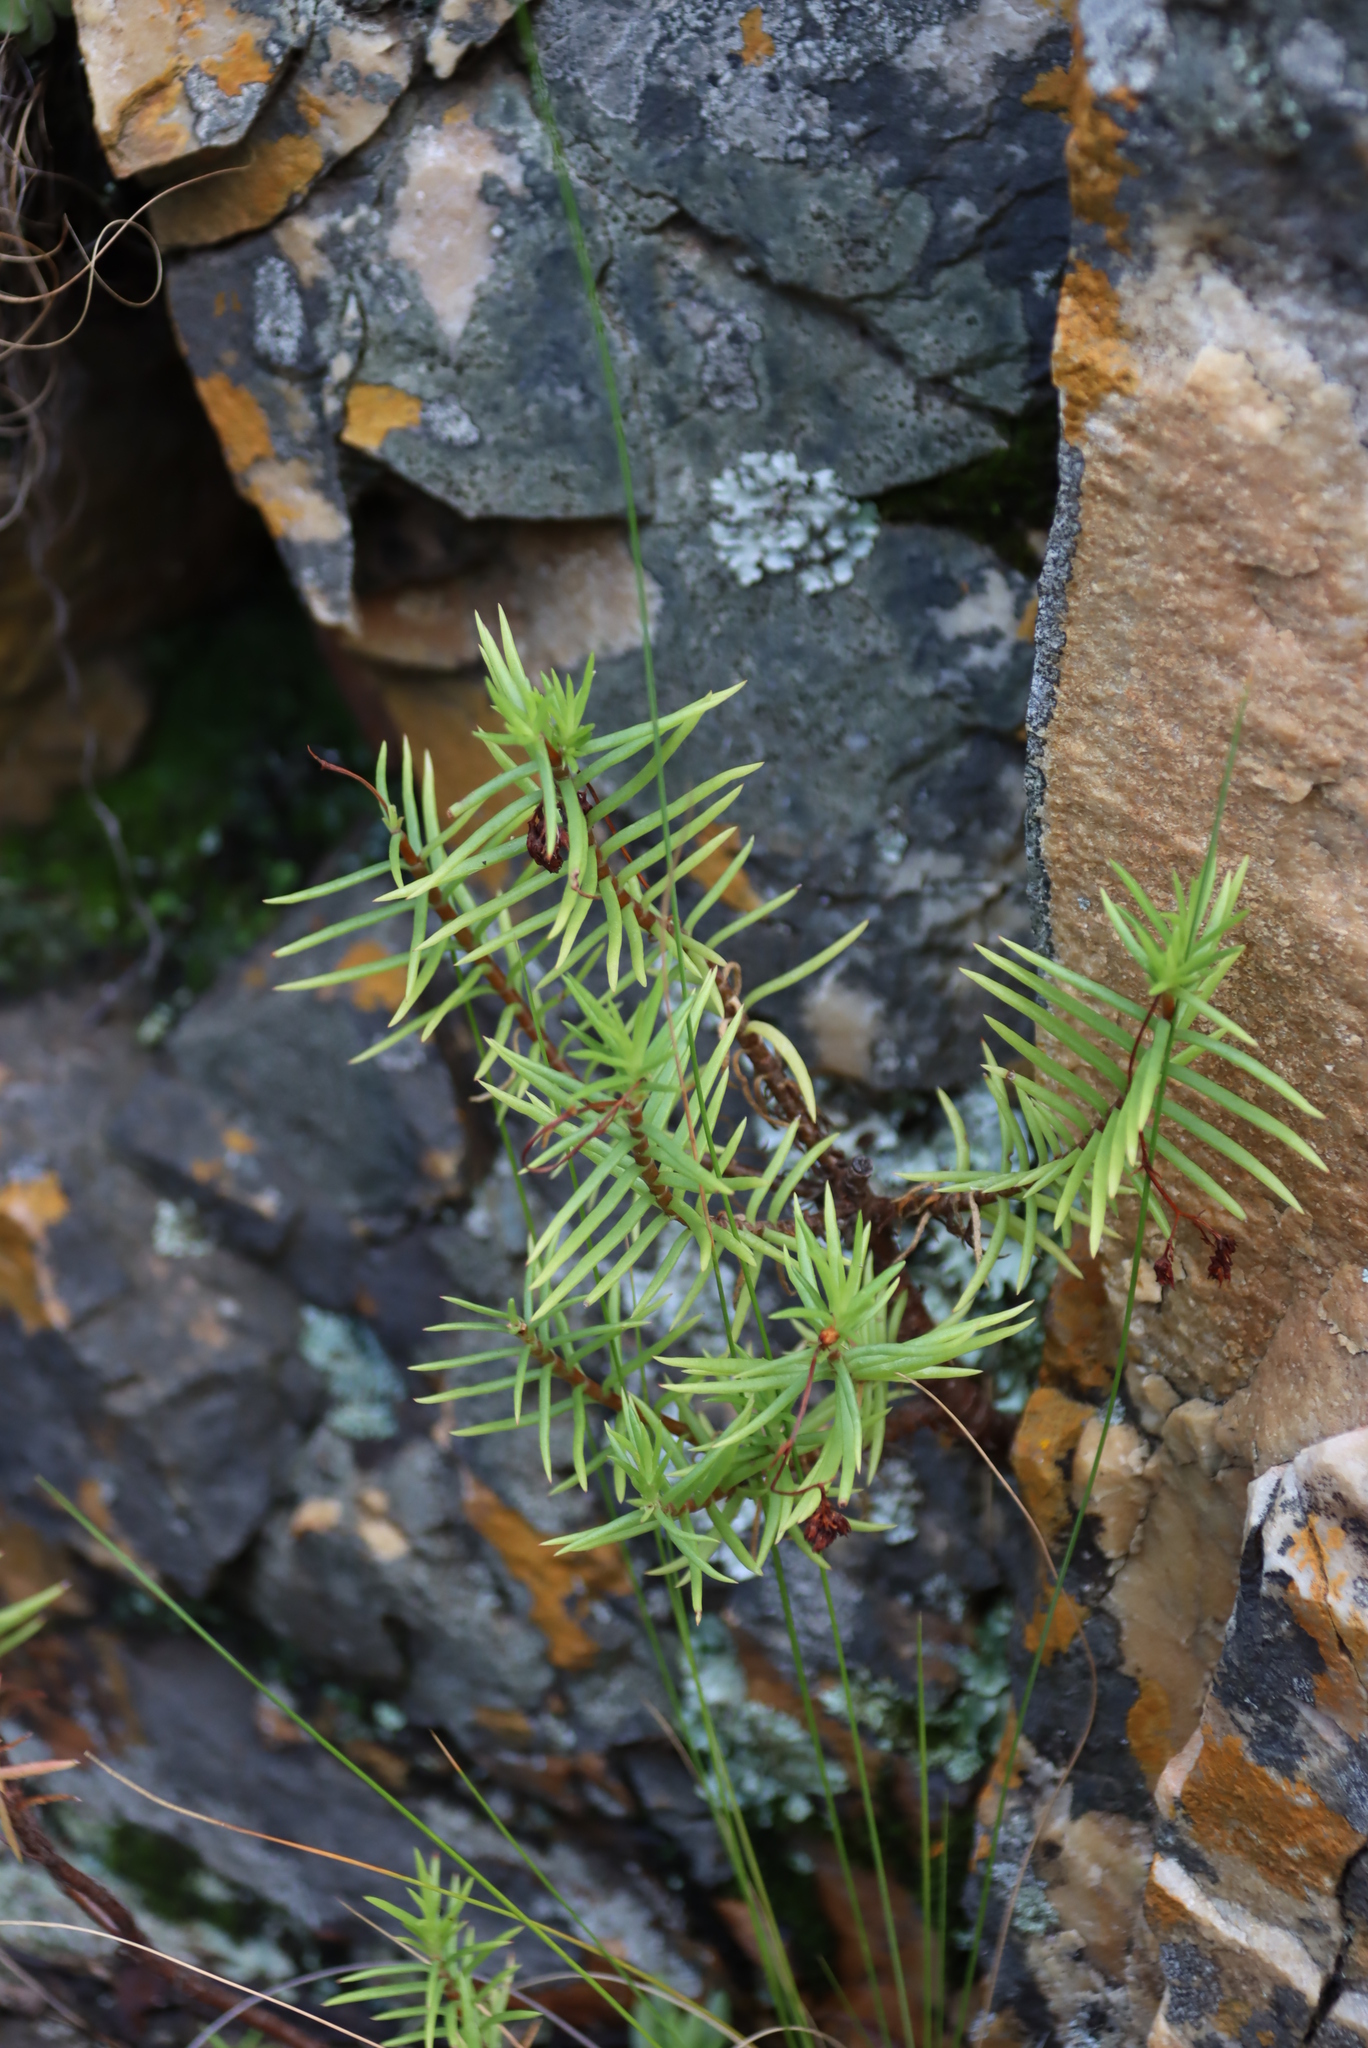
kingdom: Plantae
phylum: Tracheophyta
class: Magnoliopsida
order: Saxifragales
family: Crassulaceae
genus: Crassula
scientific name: Crassula tetragona
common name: Pygmyweed
